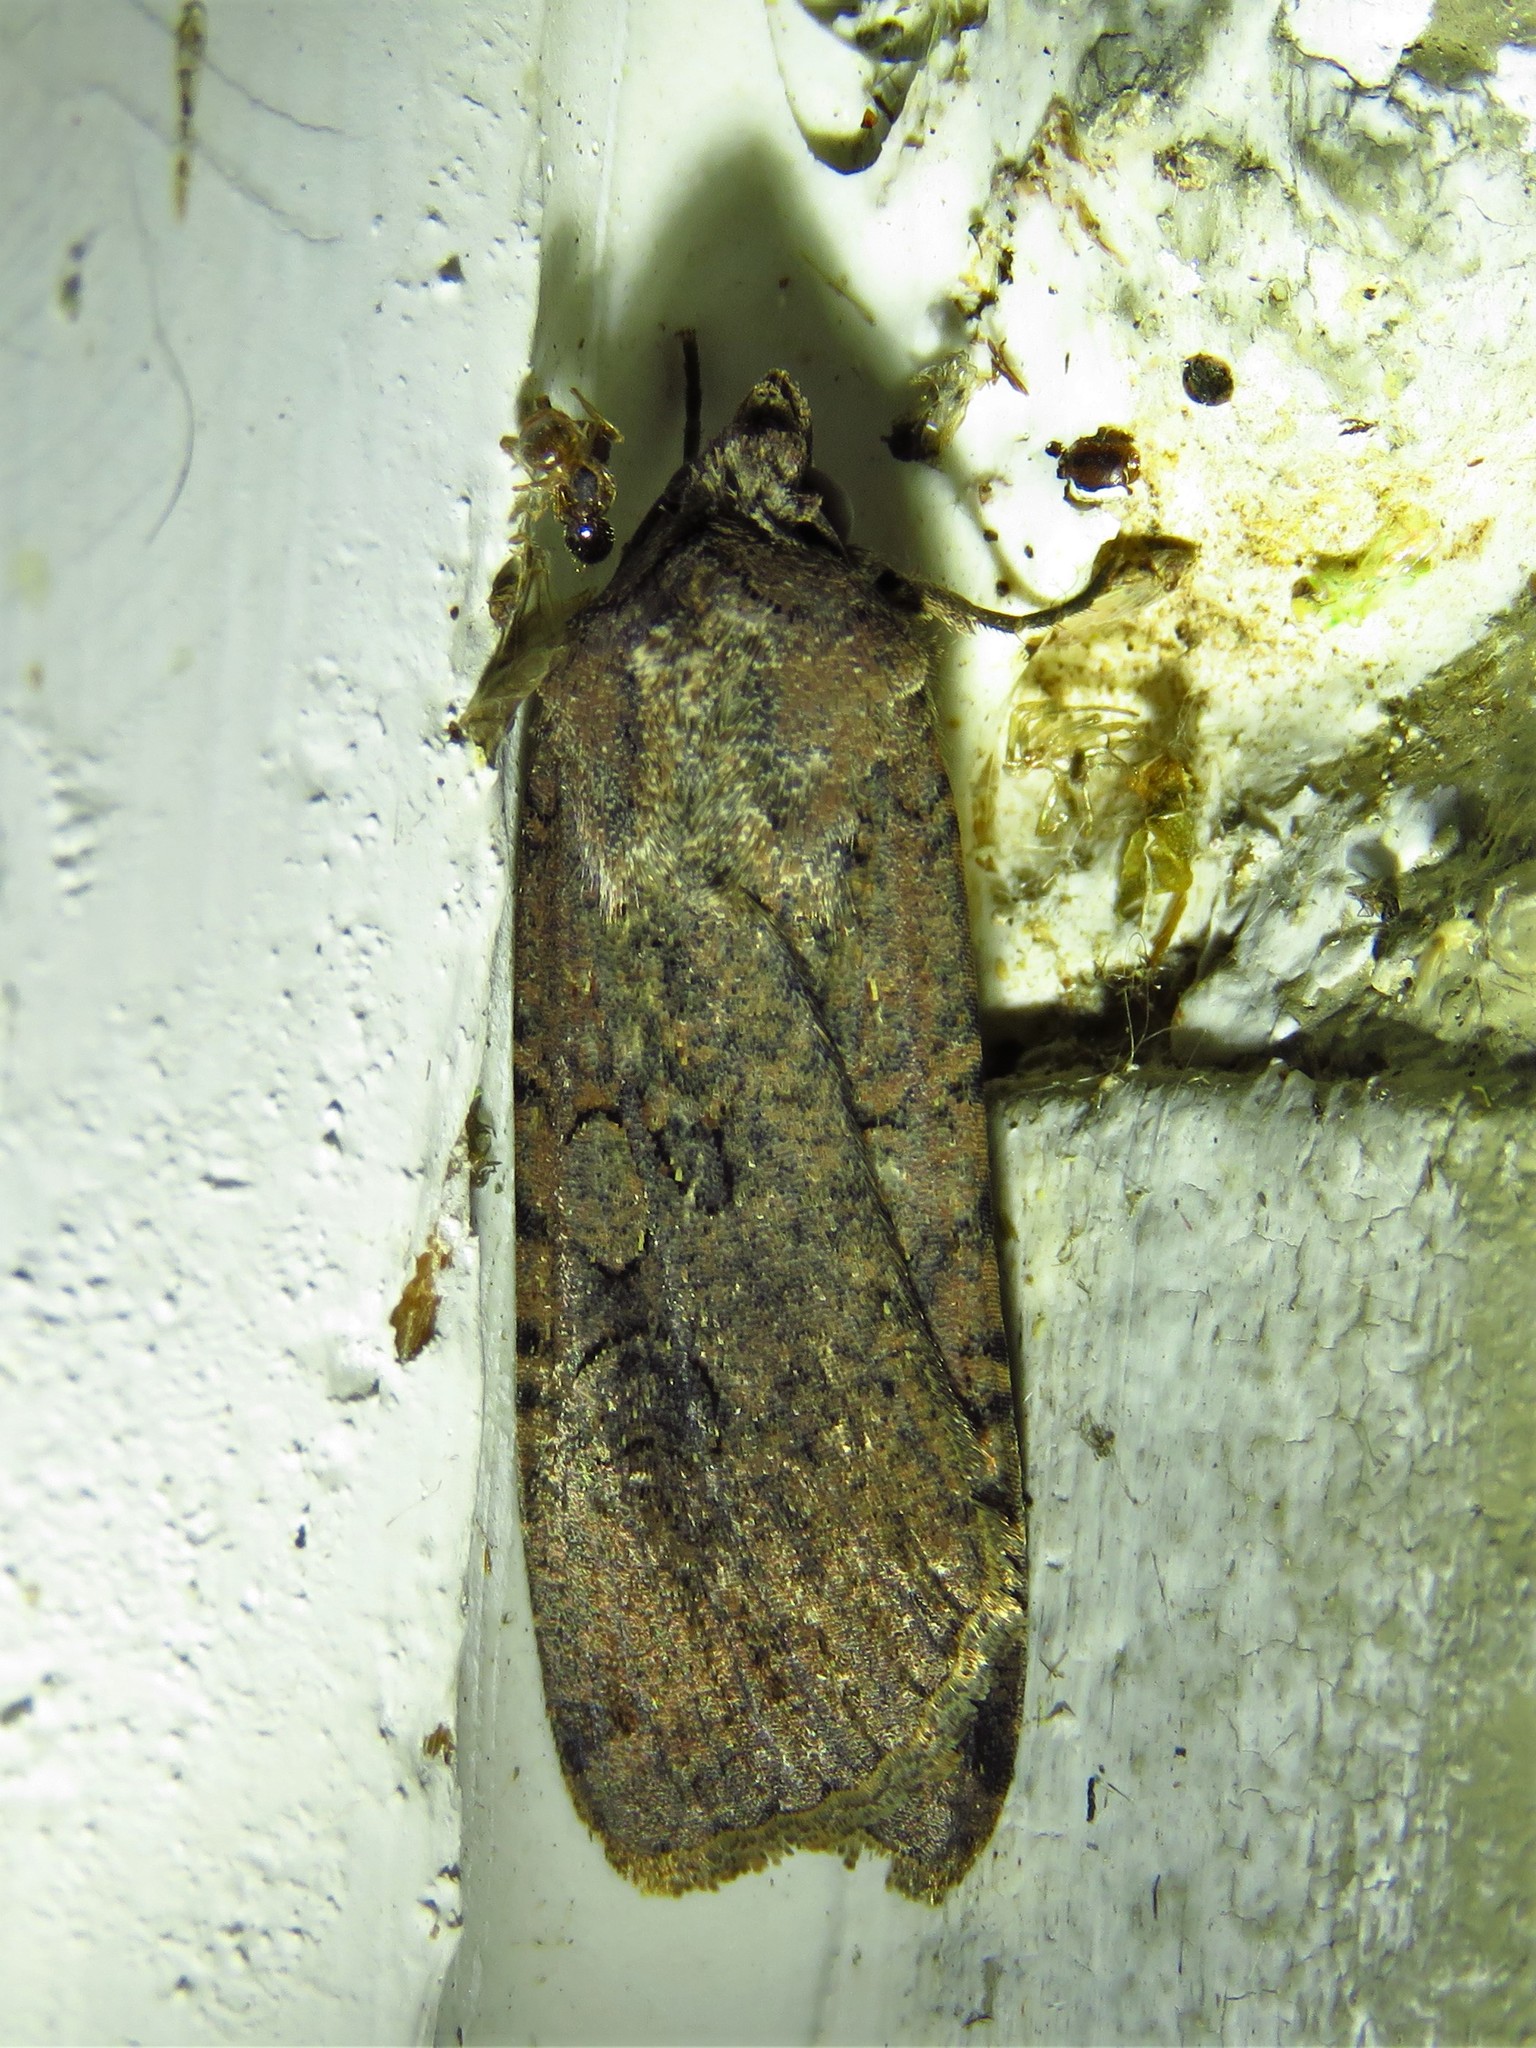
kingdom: Animalia
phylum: Arthropoda
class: Insecta
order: Lepidoptera
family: Noctuidae
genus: Peridroma
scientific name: Peridroma saucia
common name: Pearly underwing
